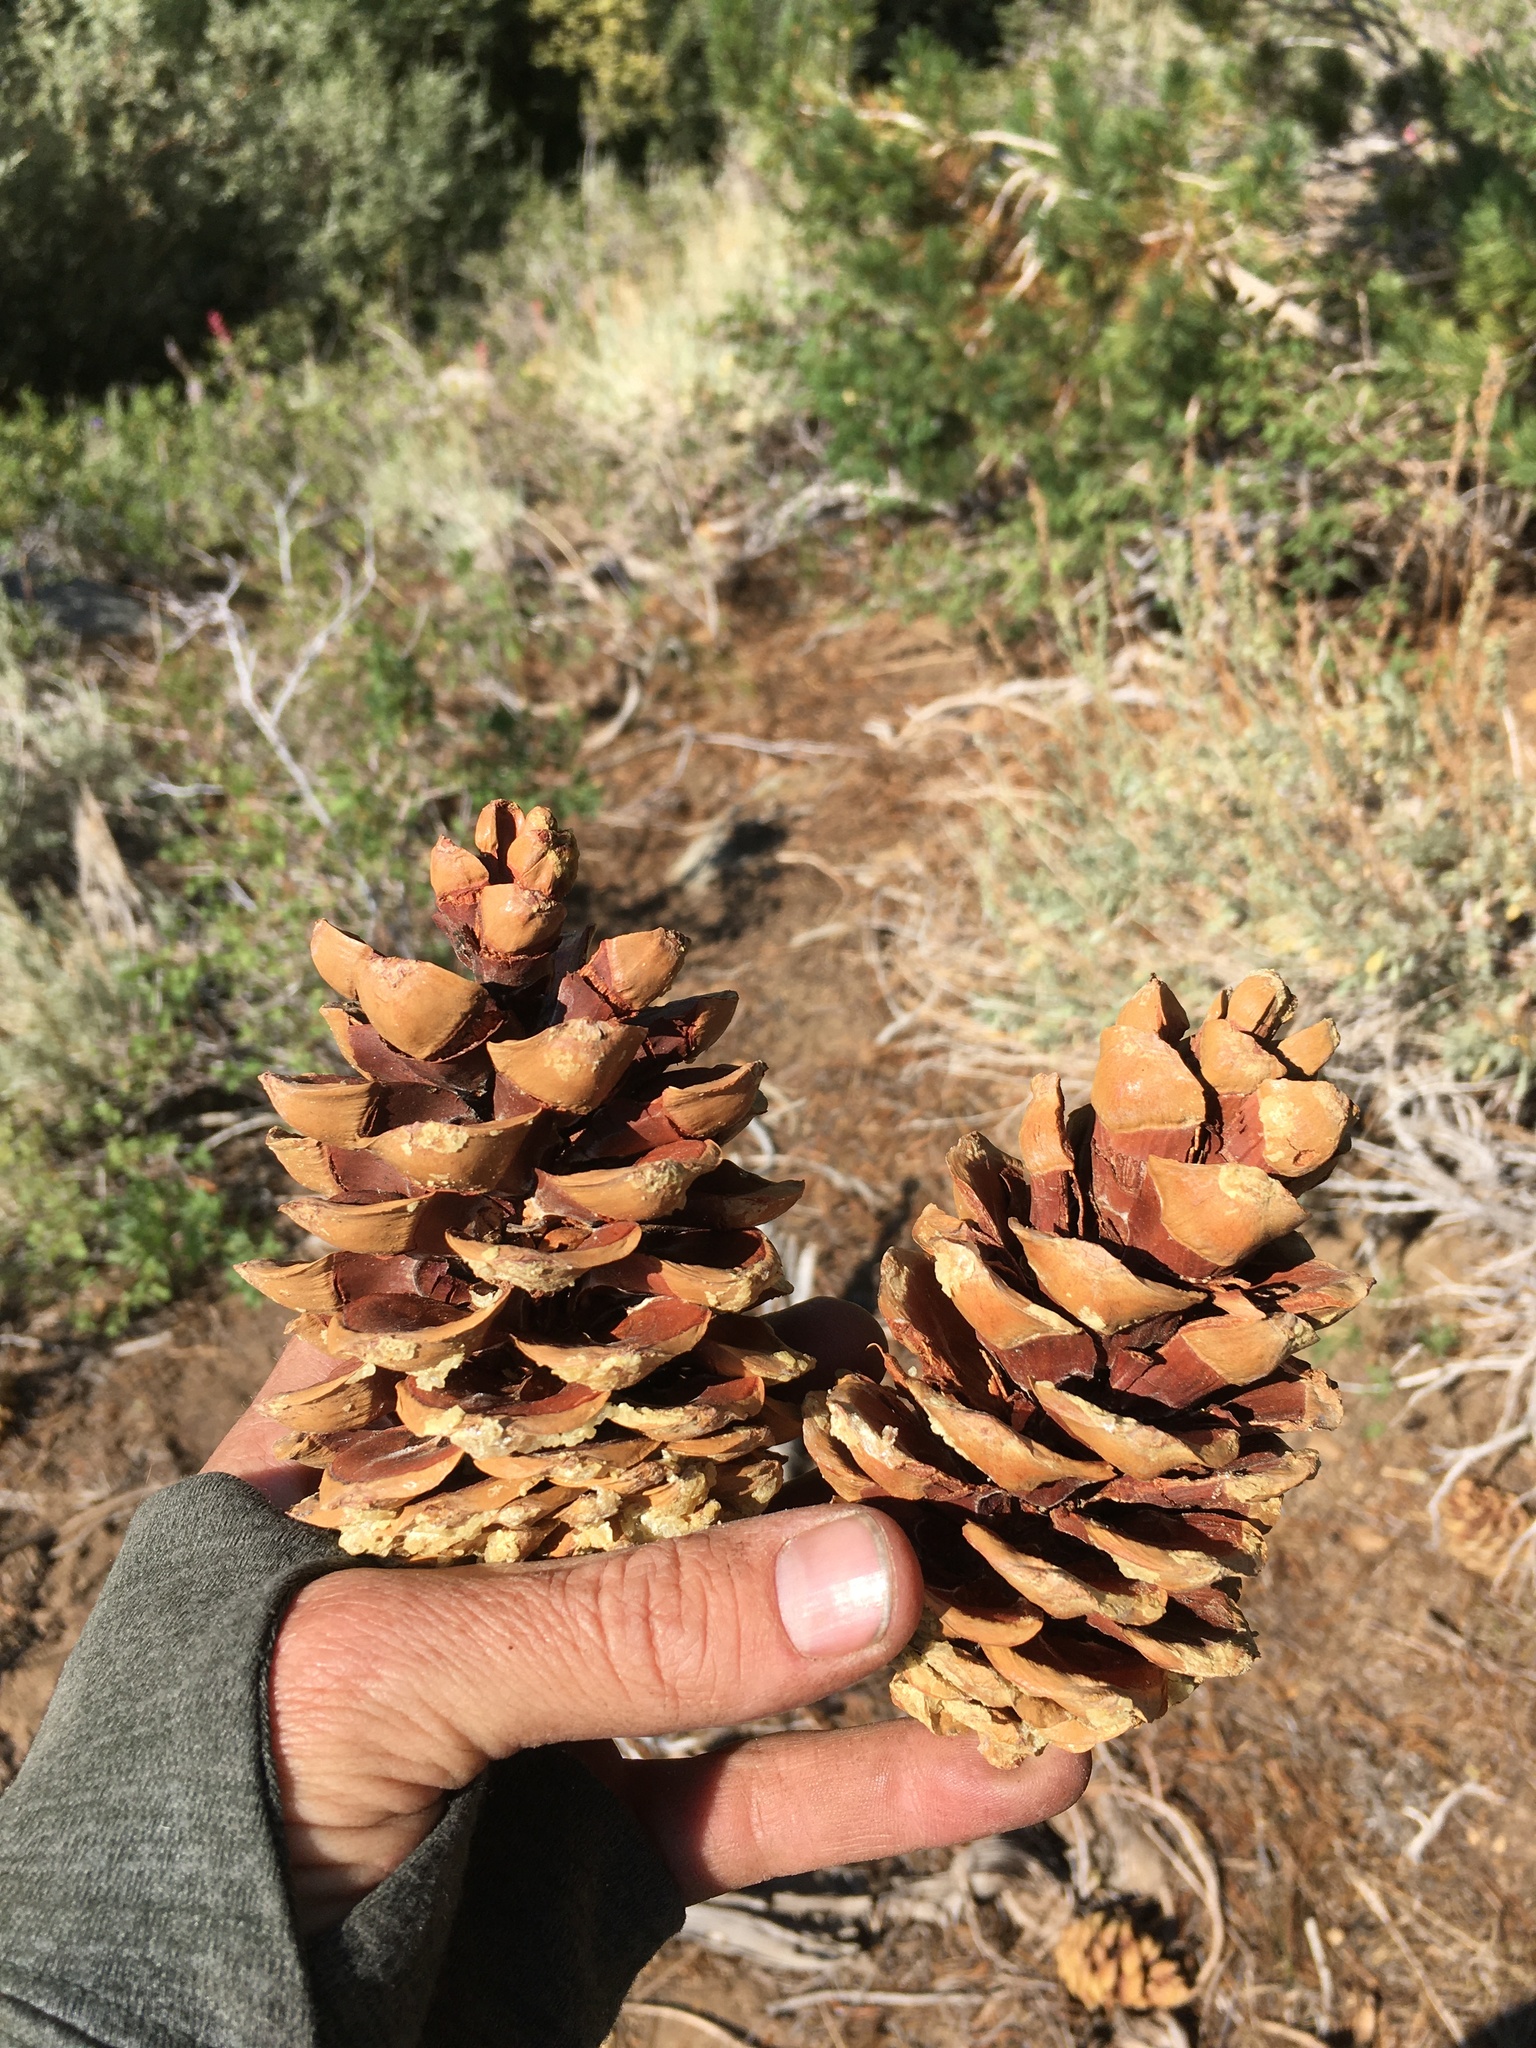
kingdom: Plantae
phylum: Tracheophyta
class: Pinopsida
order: Pinales
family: Pinaceae
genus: Pinus
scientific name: Pinus flexilis
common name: Limber pine
